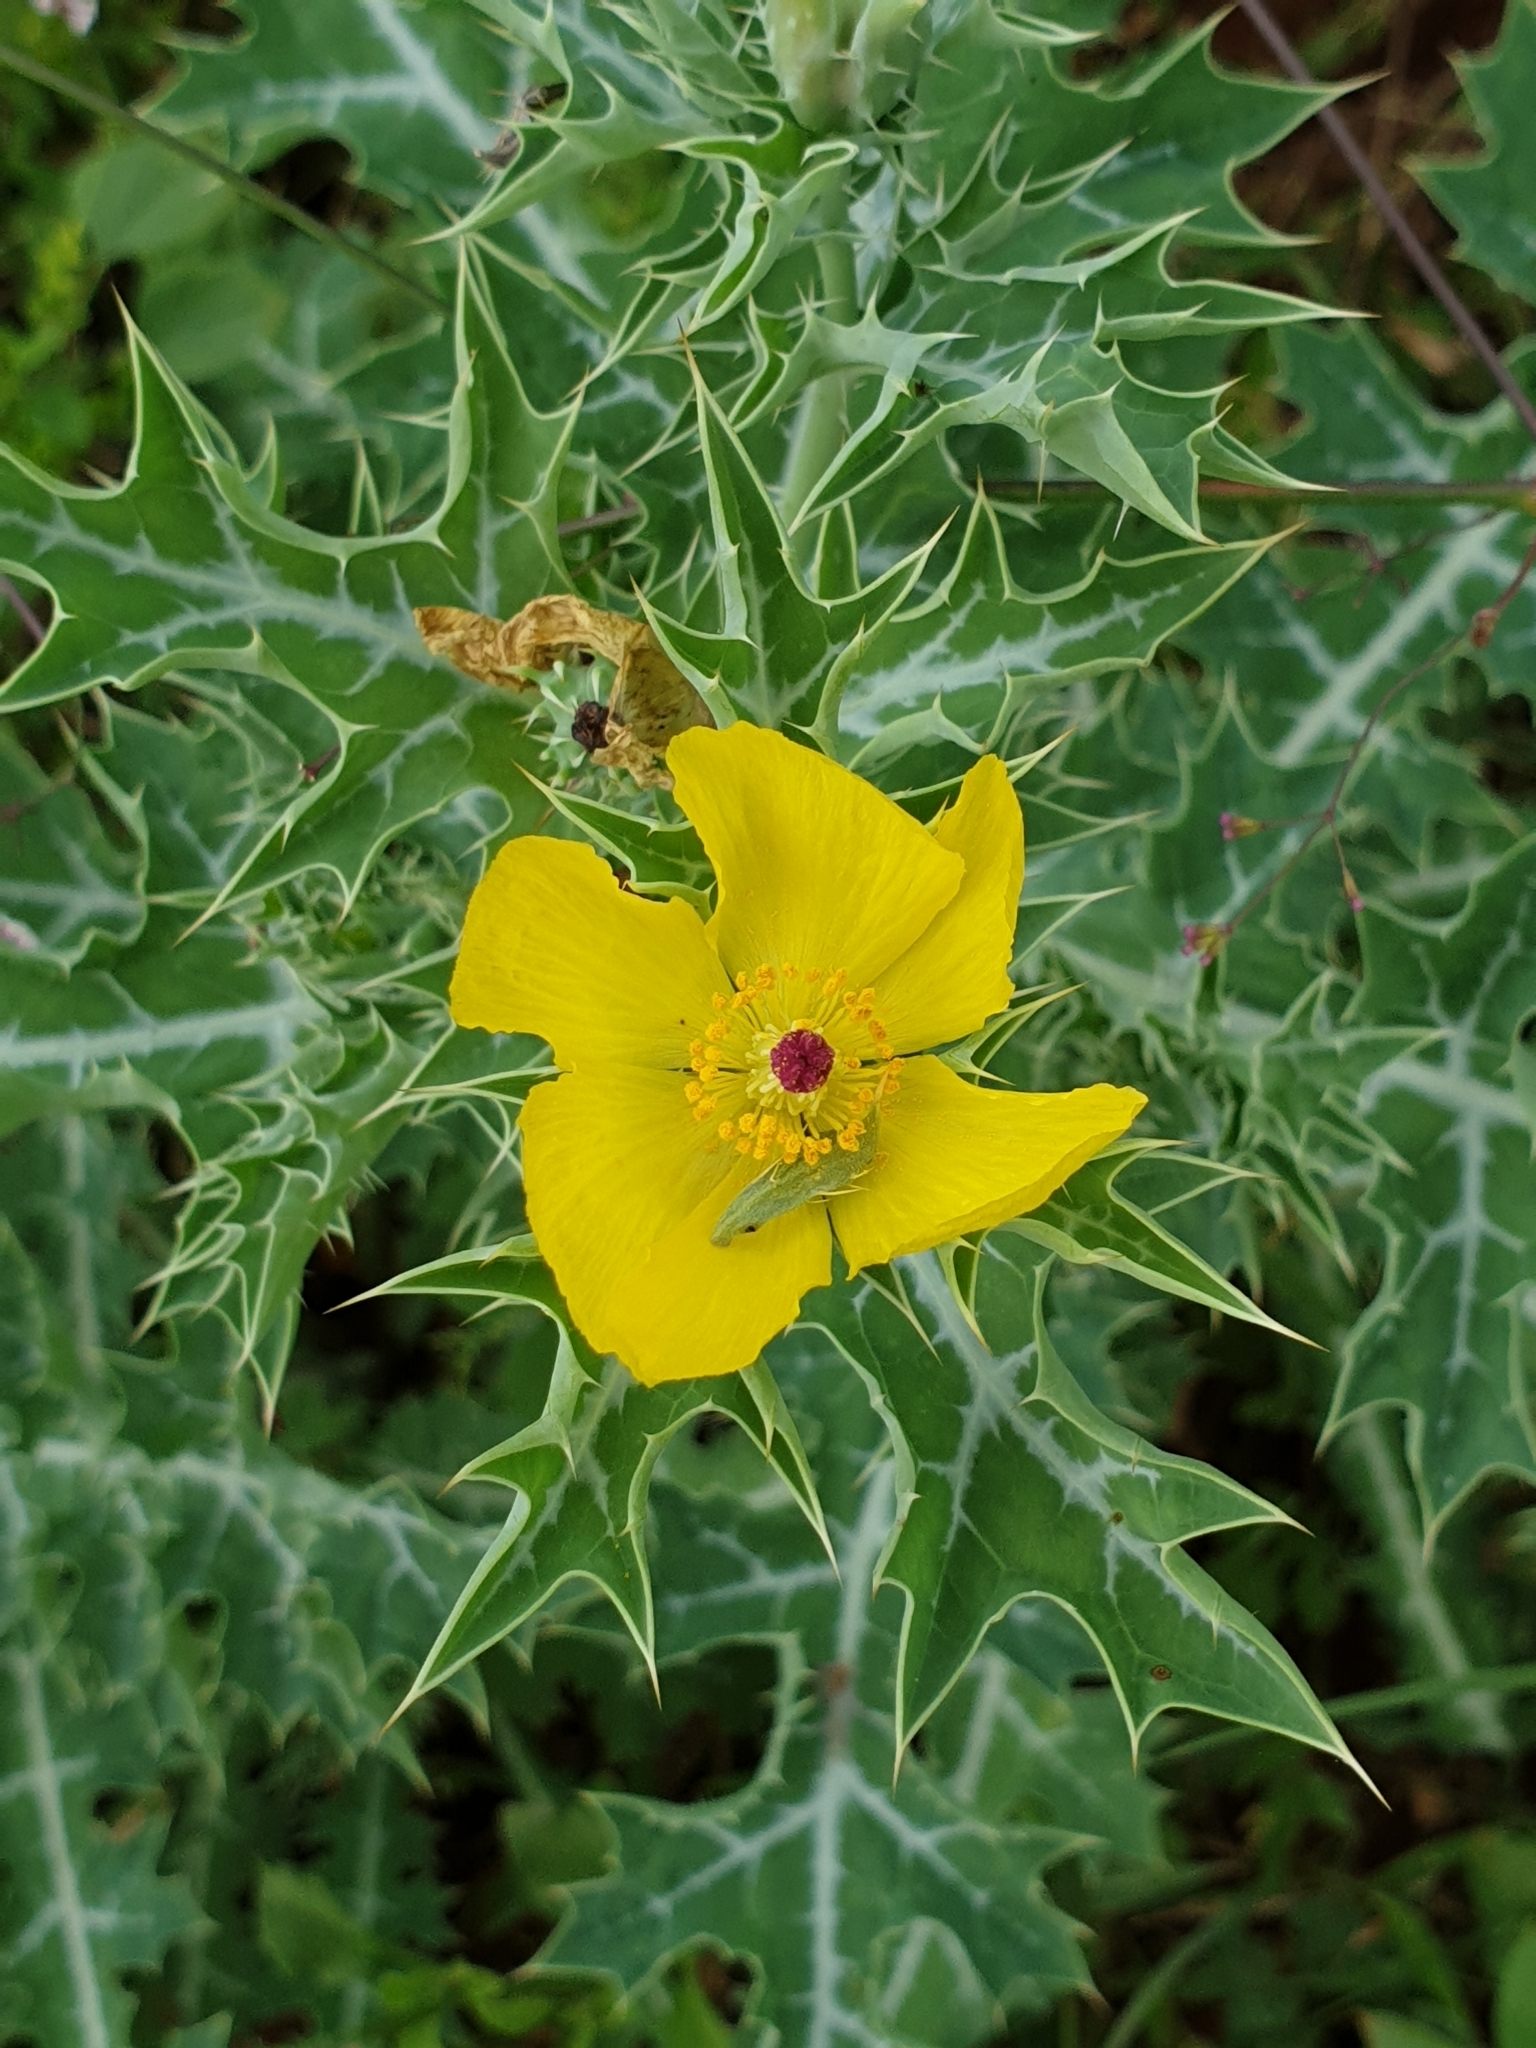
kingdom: Plantae
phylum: Tracheophyta
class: Magnoliopsida
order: Ranunculales
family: Papaveraceae
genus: Argemone
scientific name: Argemone mexicana
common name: Mexican poppy
